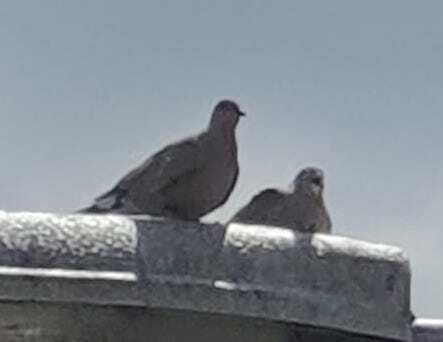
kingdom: Animalia
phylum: Chordata
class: Aves
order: Columbiformes
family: Columbidae
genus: Streptopelia
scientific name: Streptopelia decaocto
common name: Eurasian collared dove
